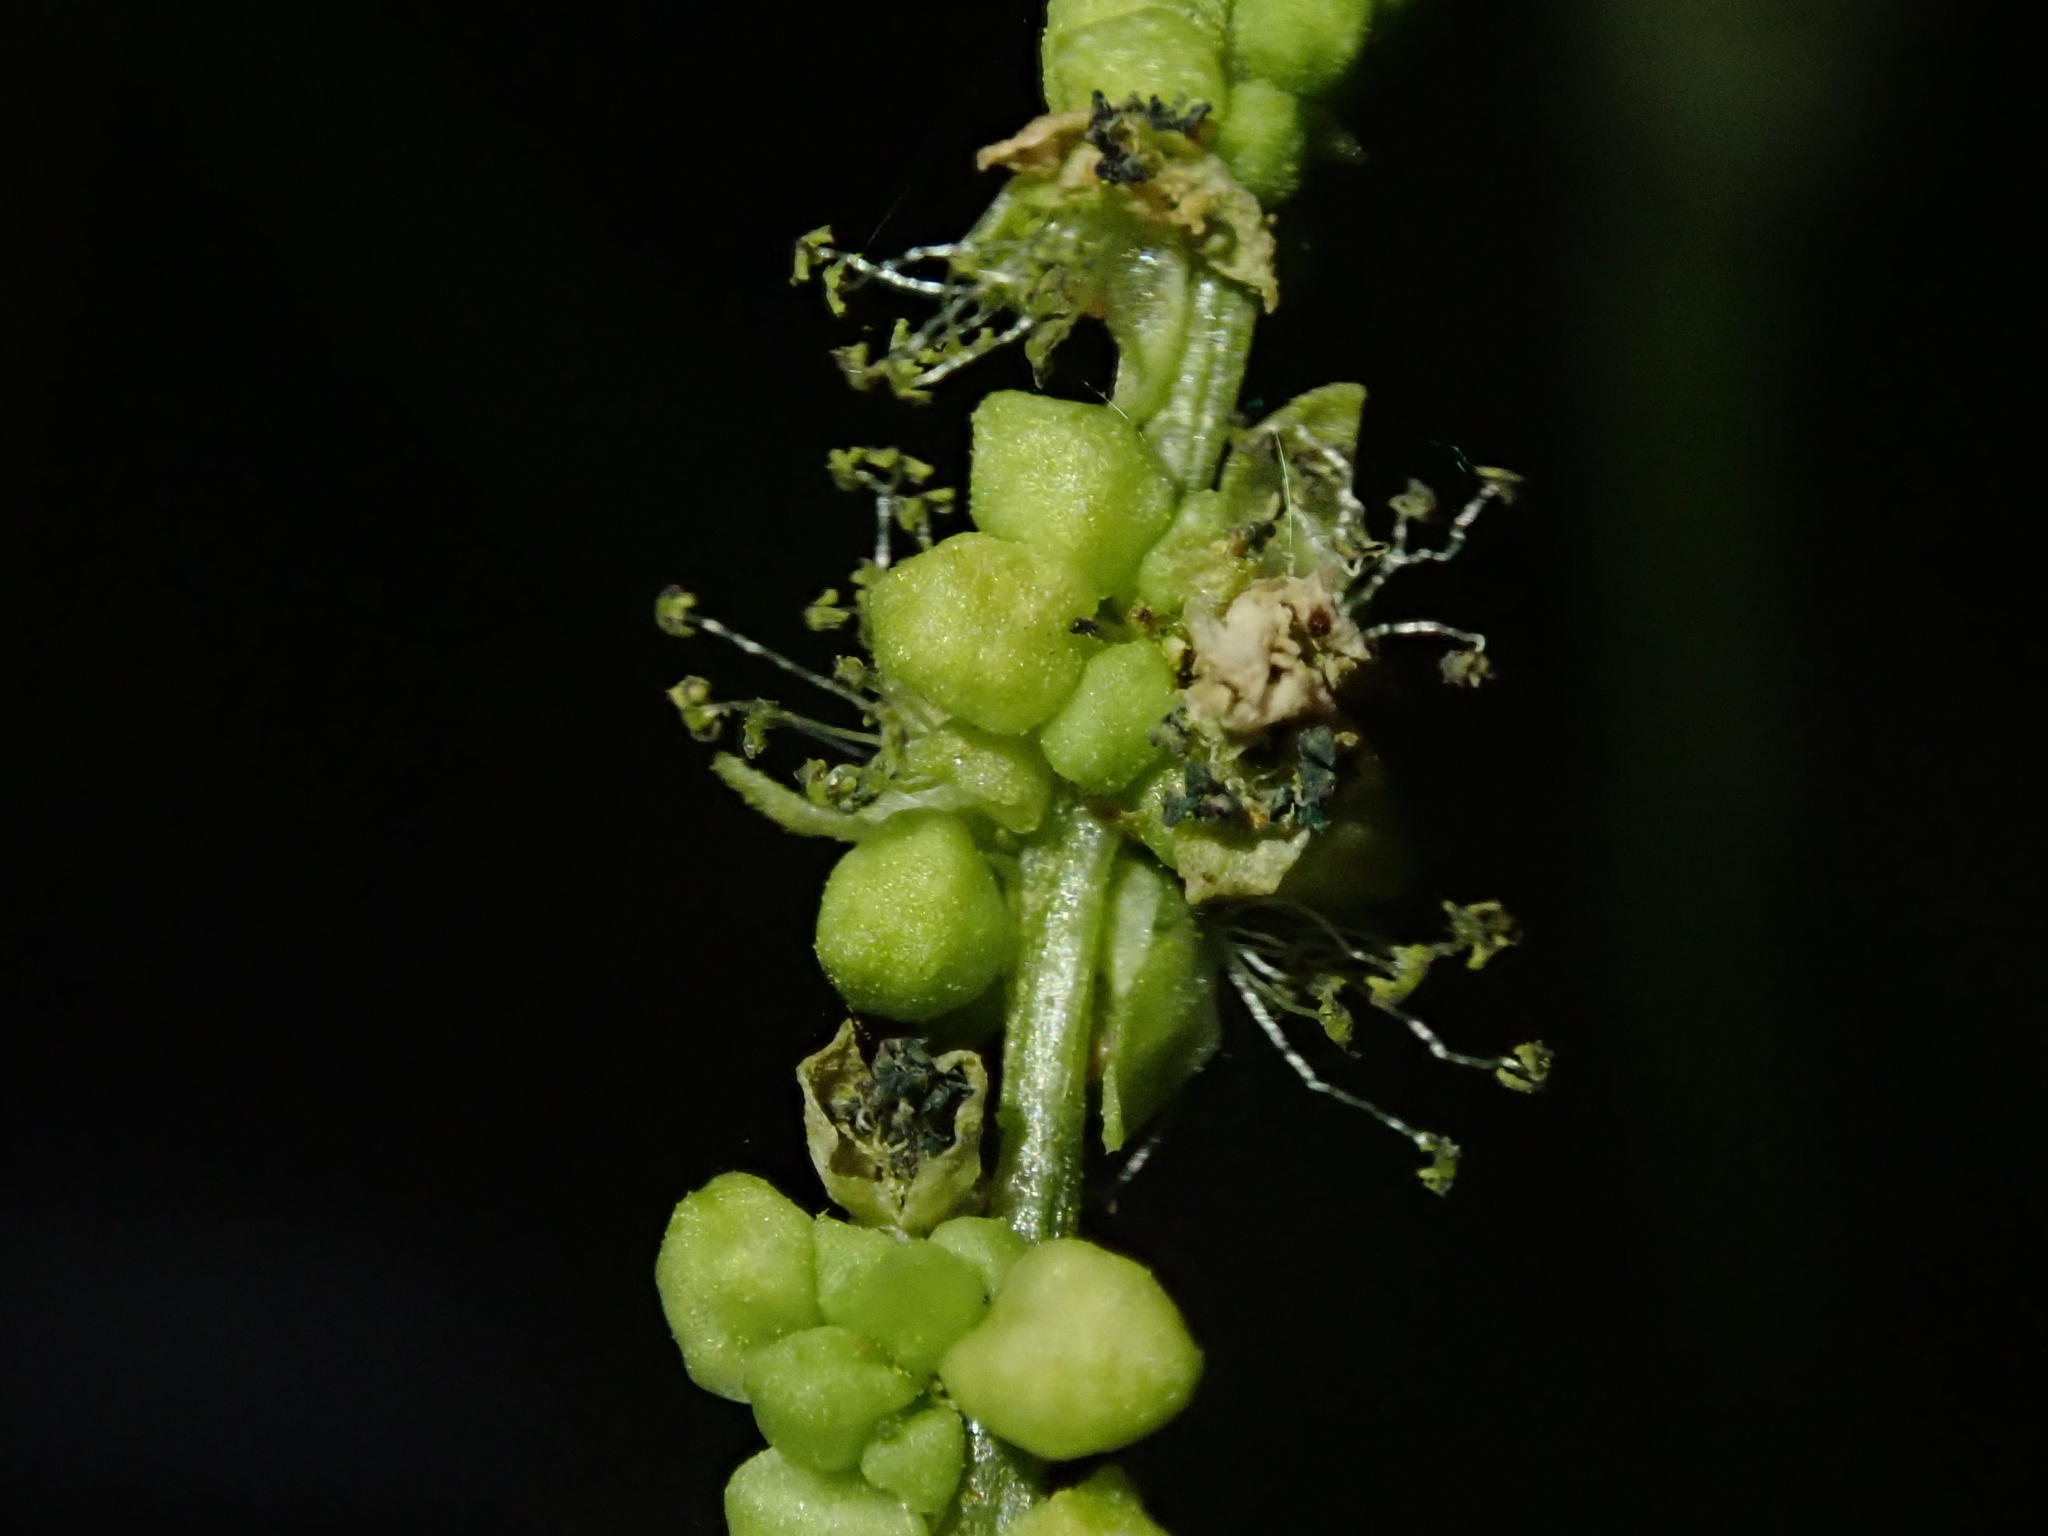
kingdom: Plantae
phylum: Tracheophyta
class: Magnoliopsida
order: Malpighiales
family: Euphorbiaceae
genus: Mercurialis
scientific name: Mercurialis annua
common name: Annual mercury
